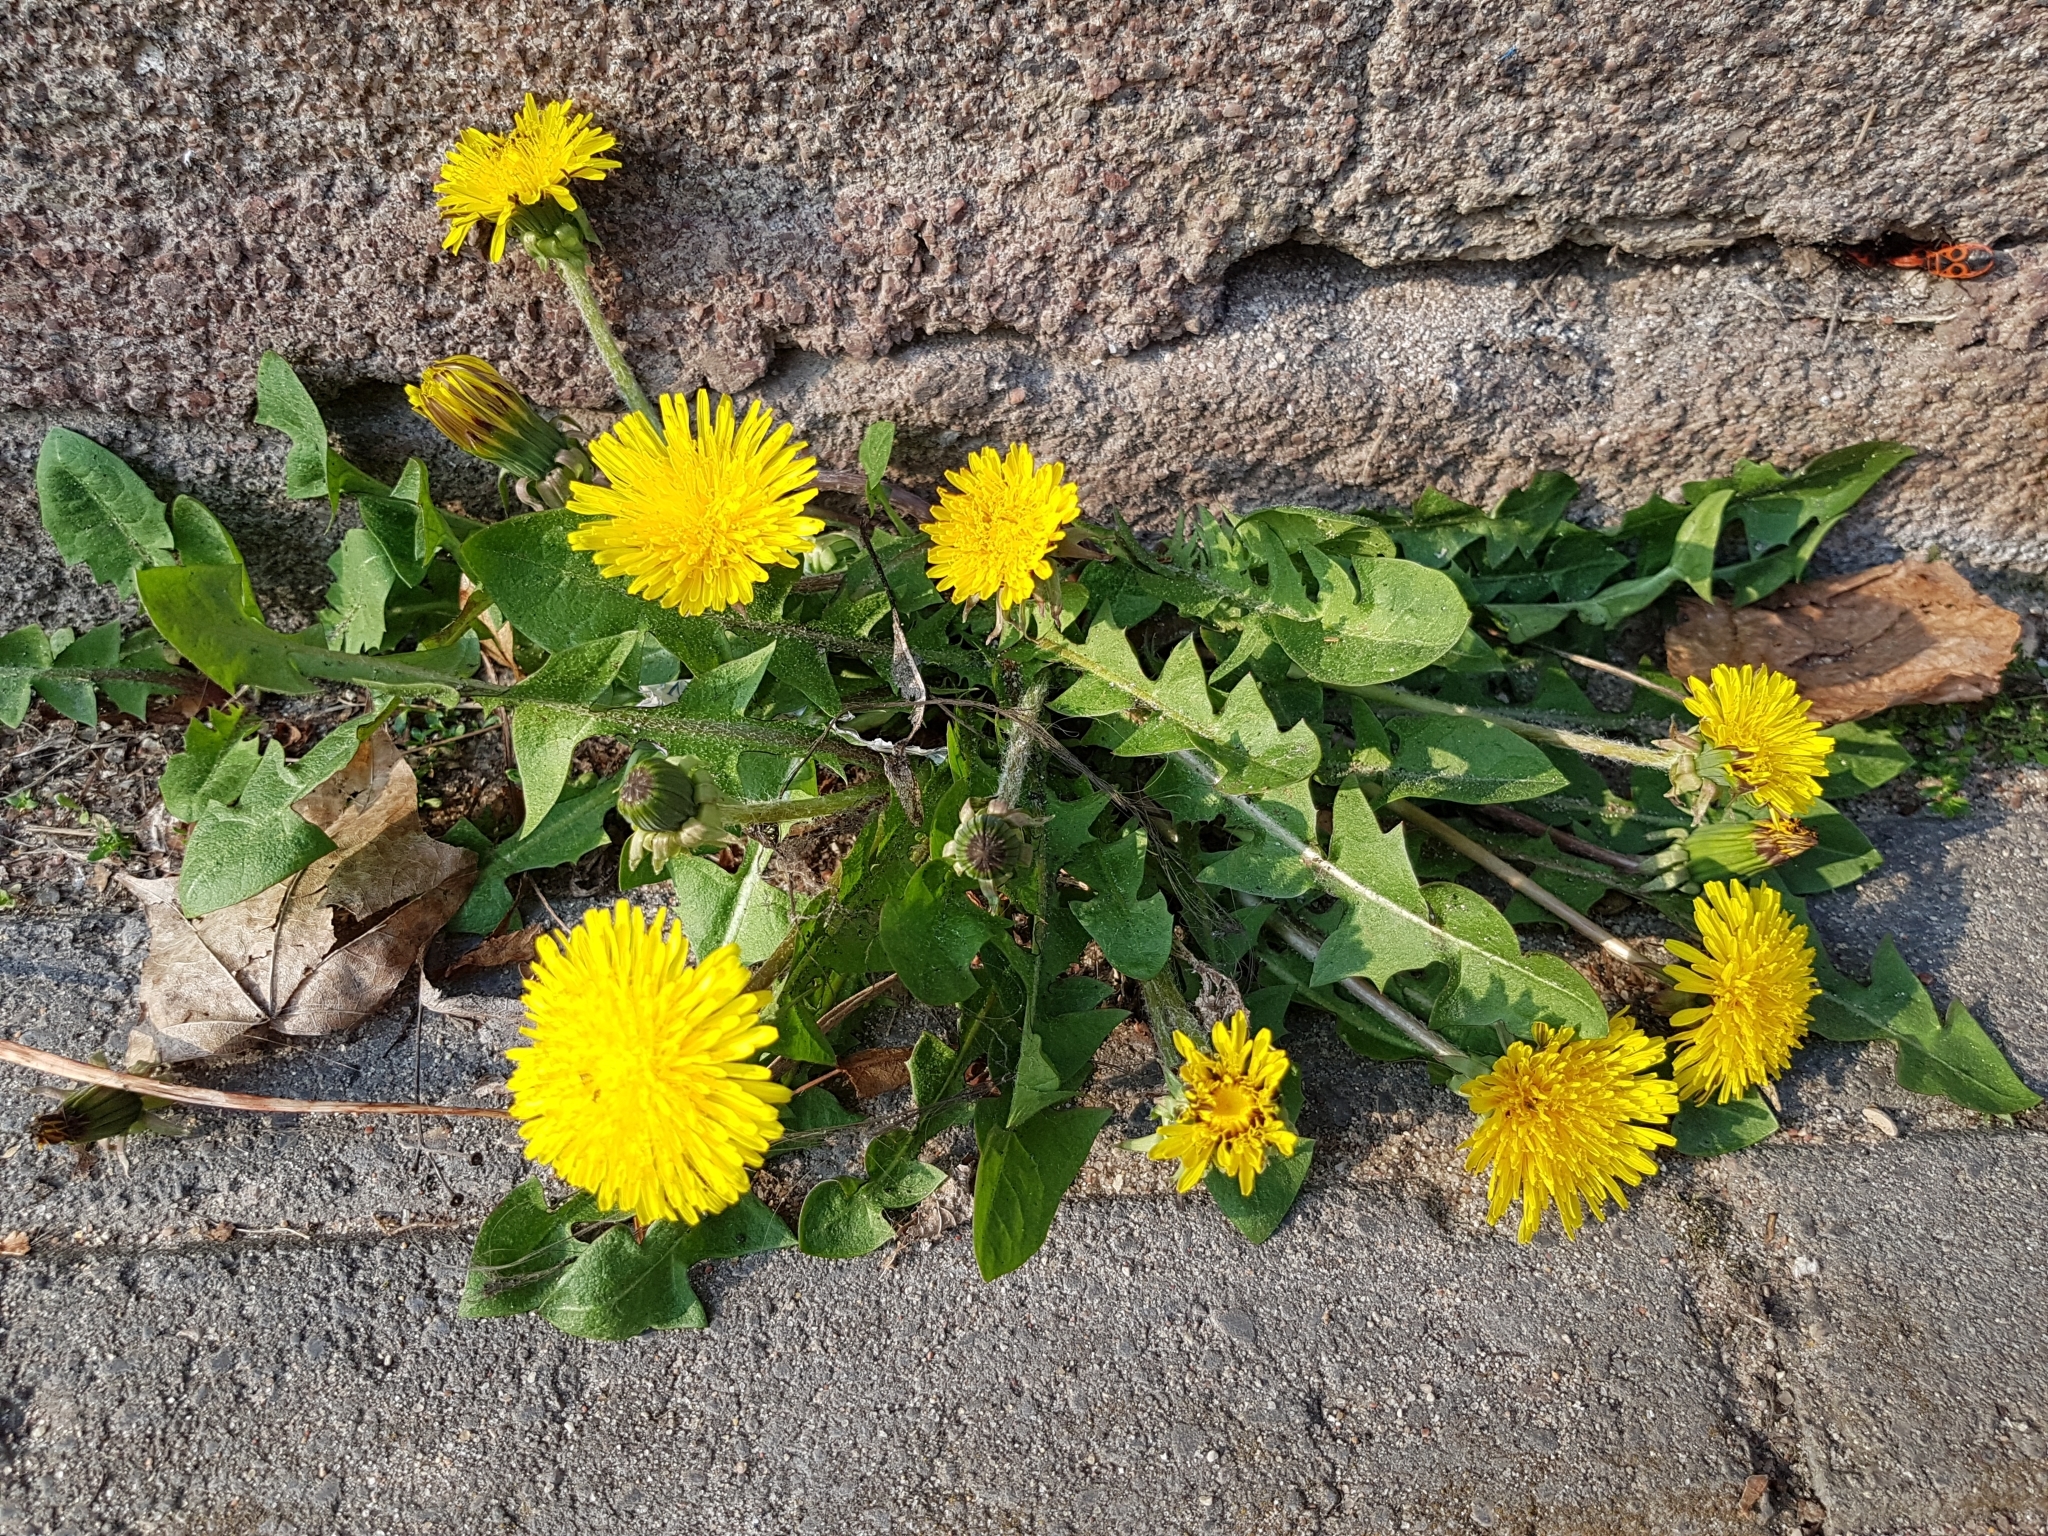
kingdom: Plantae
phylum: Tracheophyta
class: Magnoliopsida
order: Asterales
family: Asteraceae
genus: Taraxacum
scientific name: Taraxacum officinale
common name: Common dandelion
